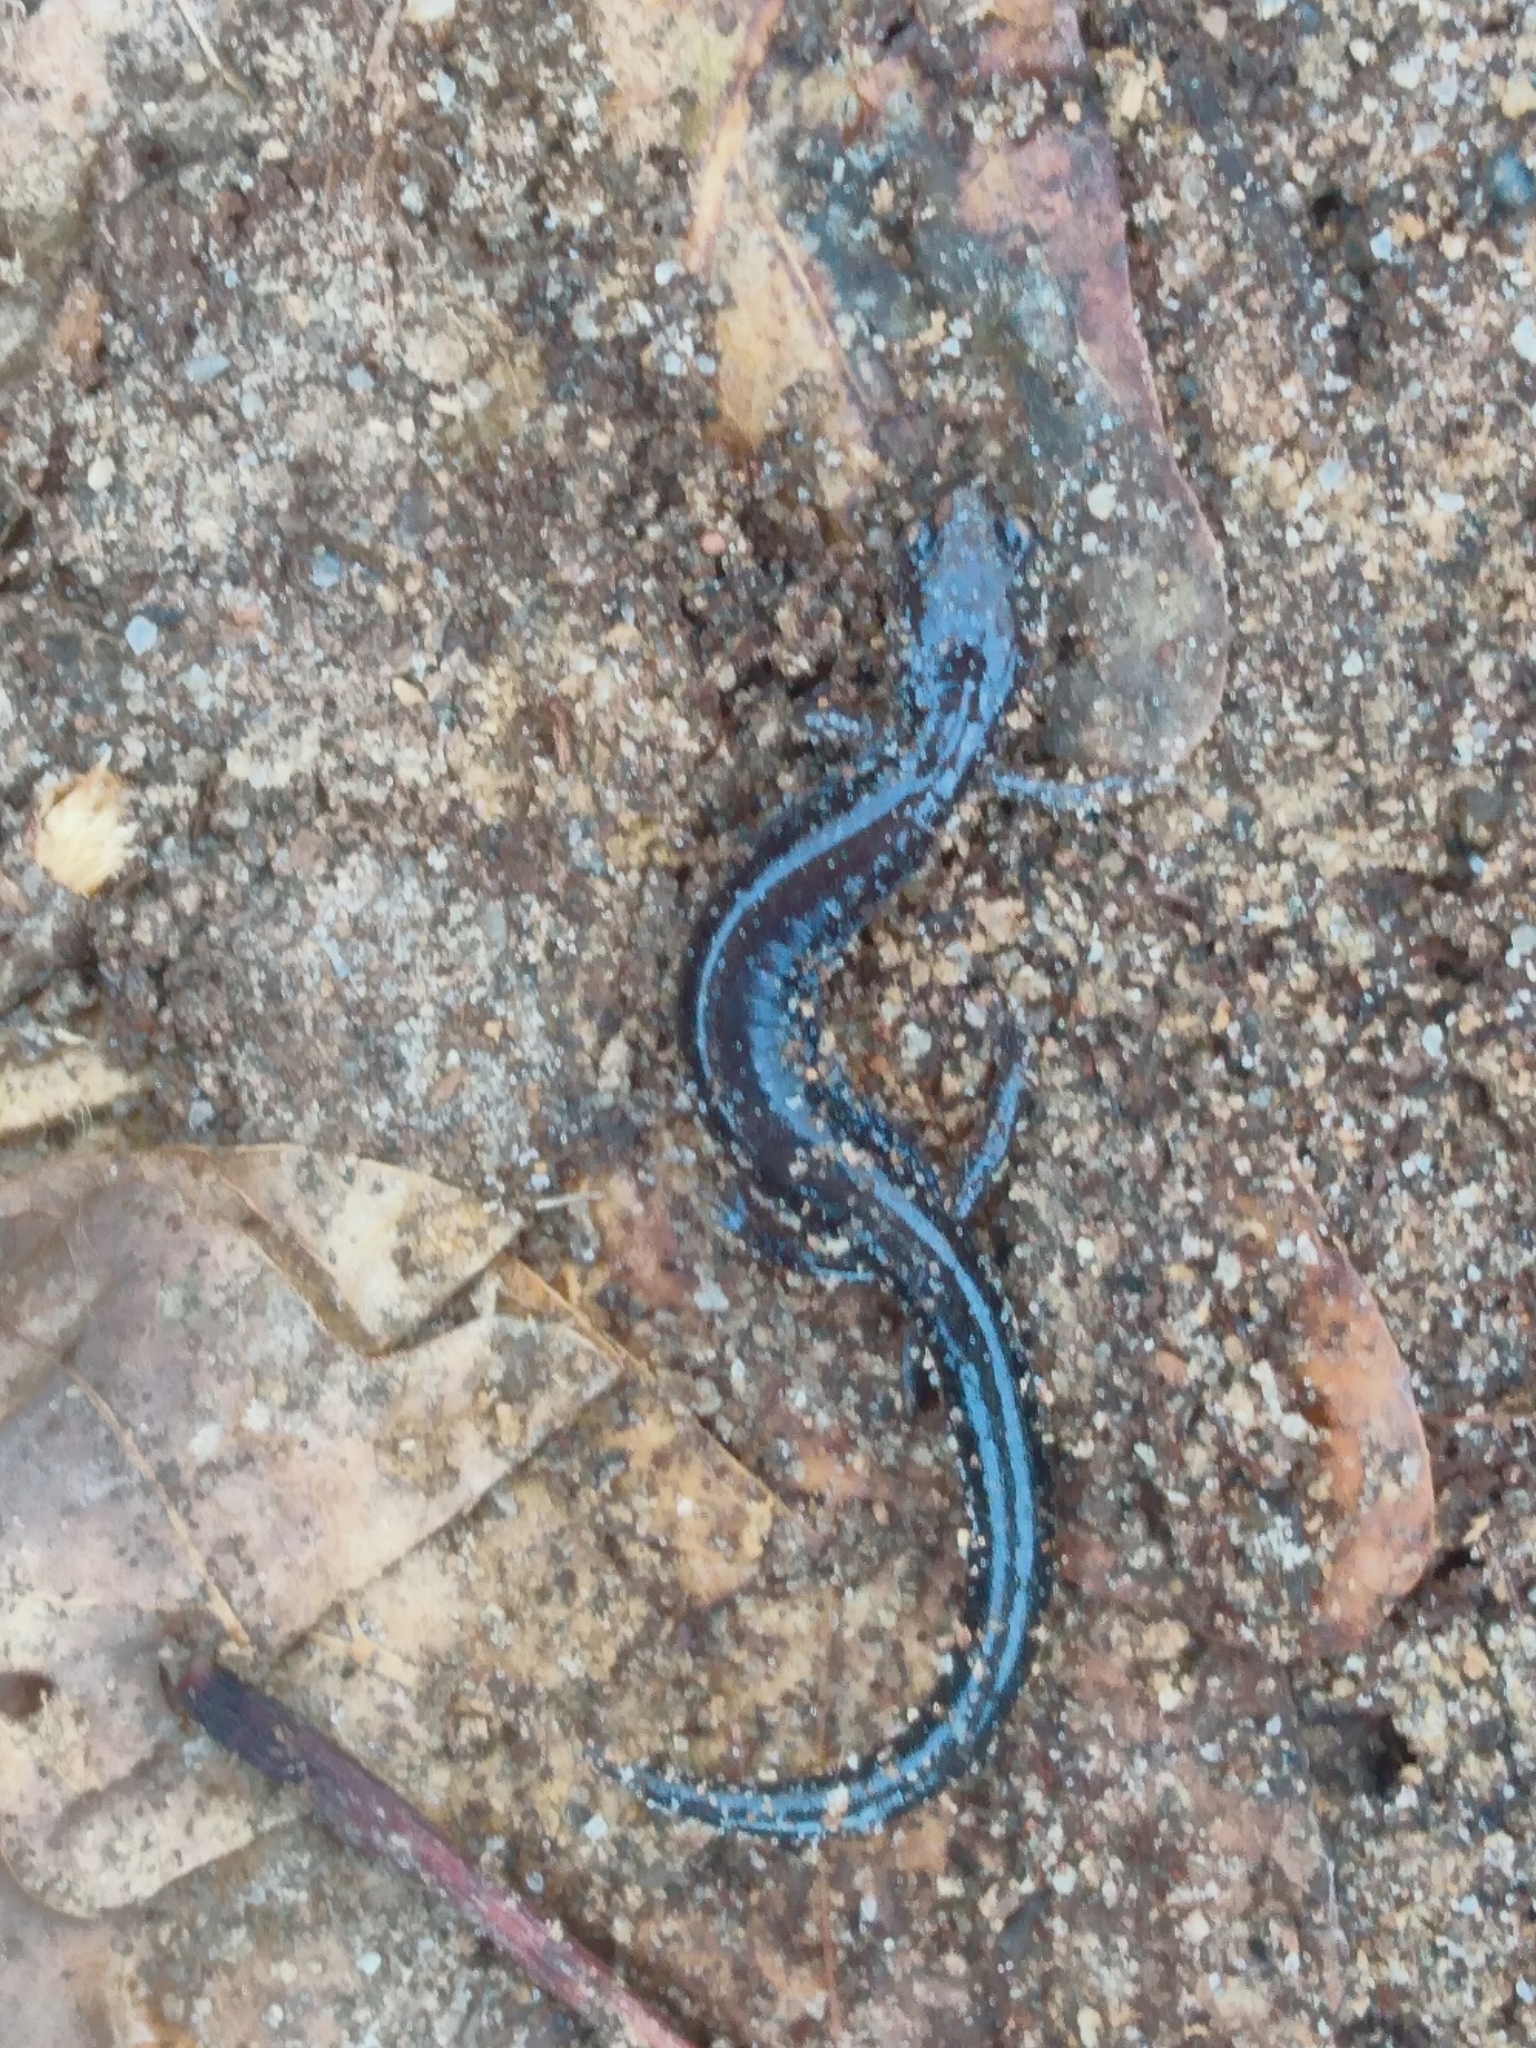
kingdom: Animalia
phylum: Chordata
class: Amphibia
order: Caudata
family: Plethodontidae
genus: Plethodon
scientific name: Plethodon cinereus
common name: Redback salamander
